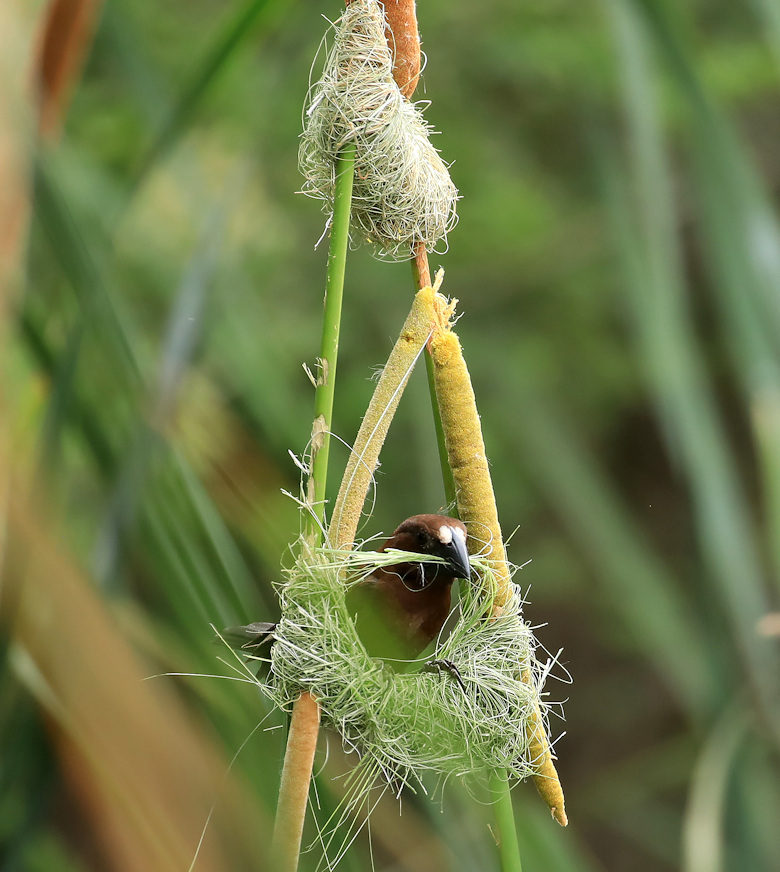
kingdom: Animalia
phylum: Chordata
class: Aves
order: Passeriformes
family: Ploceidae
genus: Amblyospiza
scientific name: Amblyospiza albifrons
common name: Thick-billed weaver
